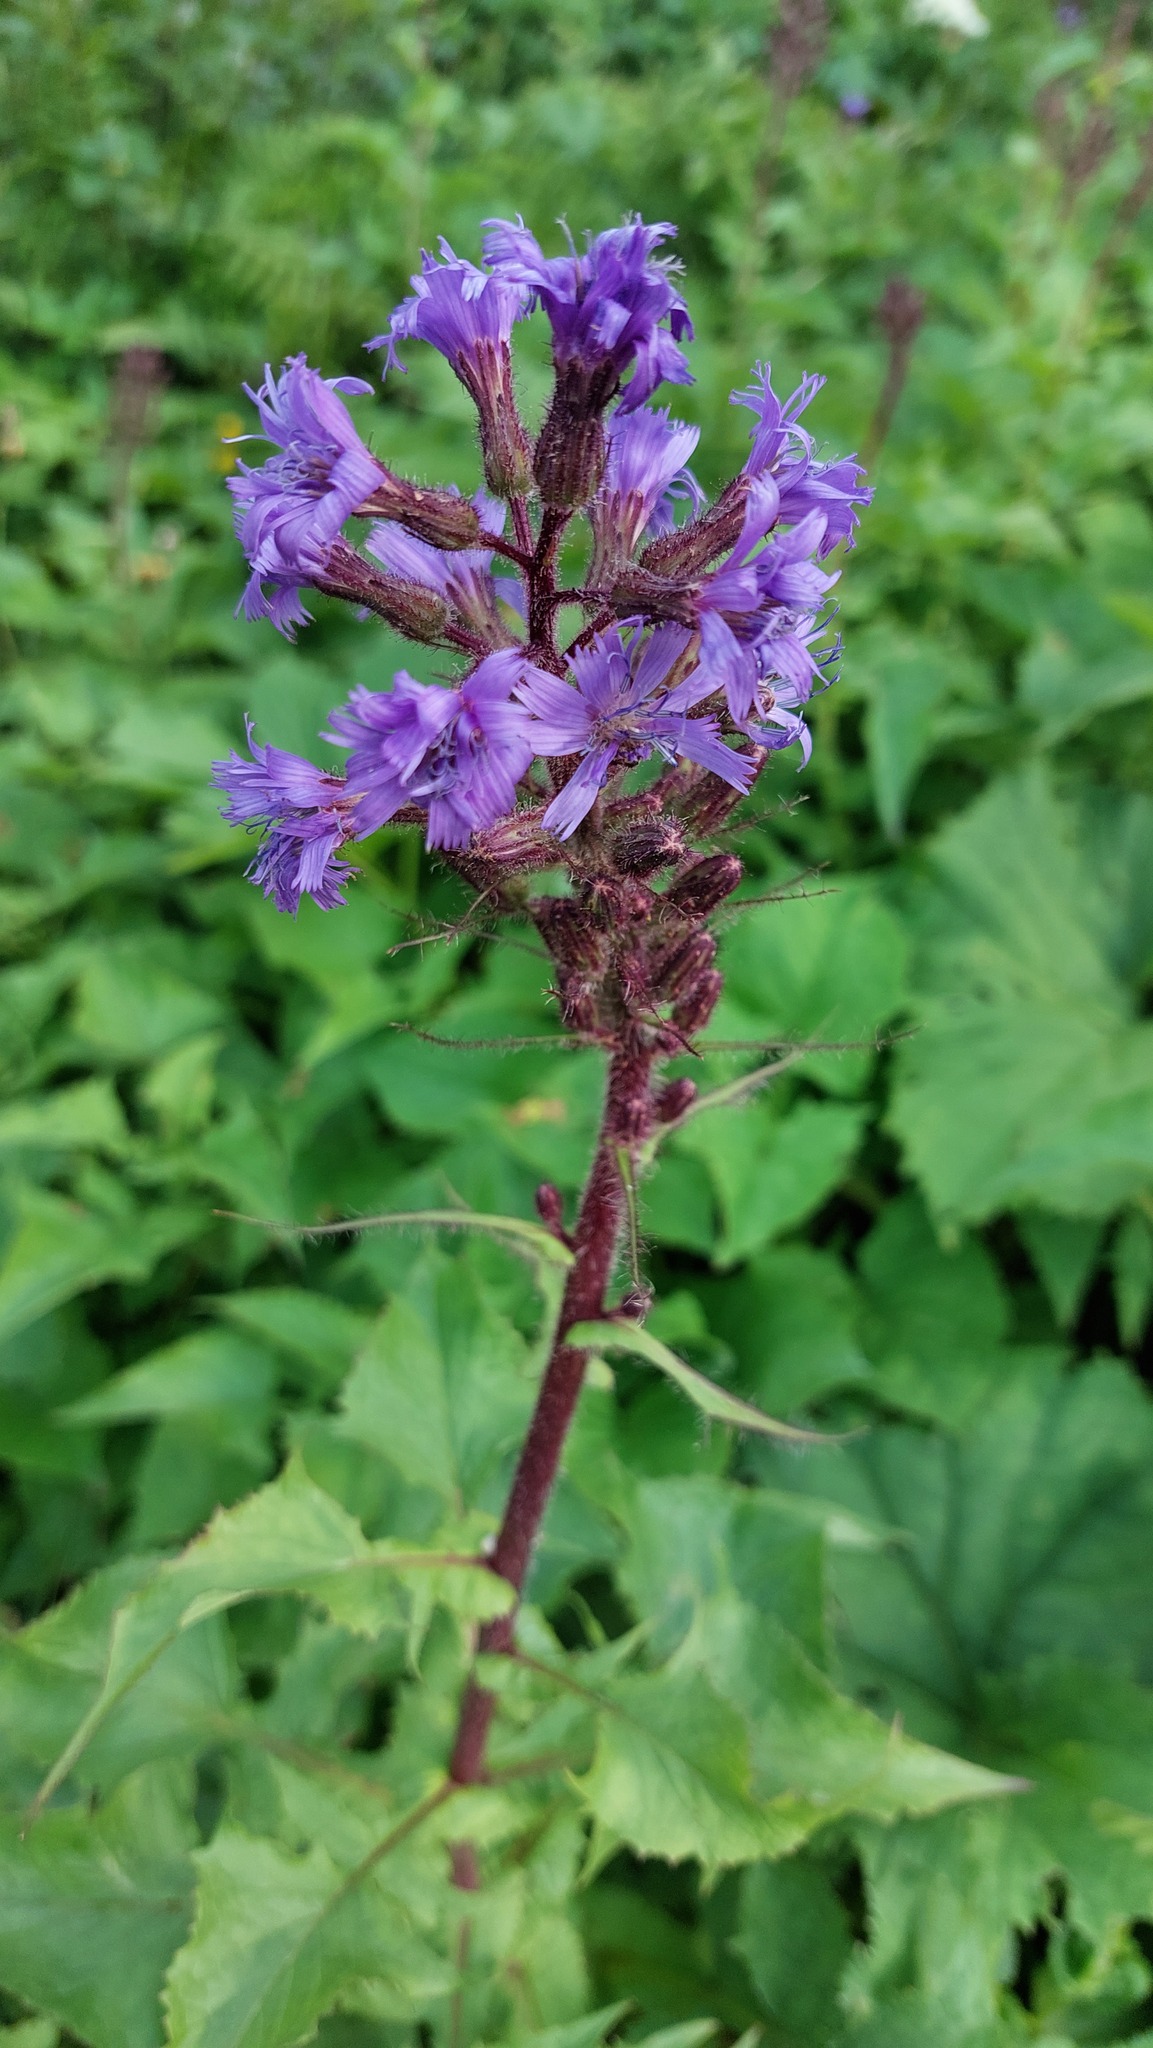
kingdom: Plantae
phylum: Tracheophyta
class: Magnoliopsida
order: Asterales
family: Asteraceae
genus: Cicerbita
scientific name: Cicerbita alpina
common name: Alpine blue-sow-thistle
